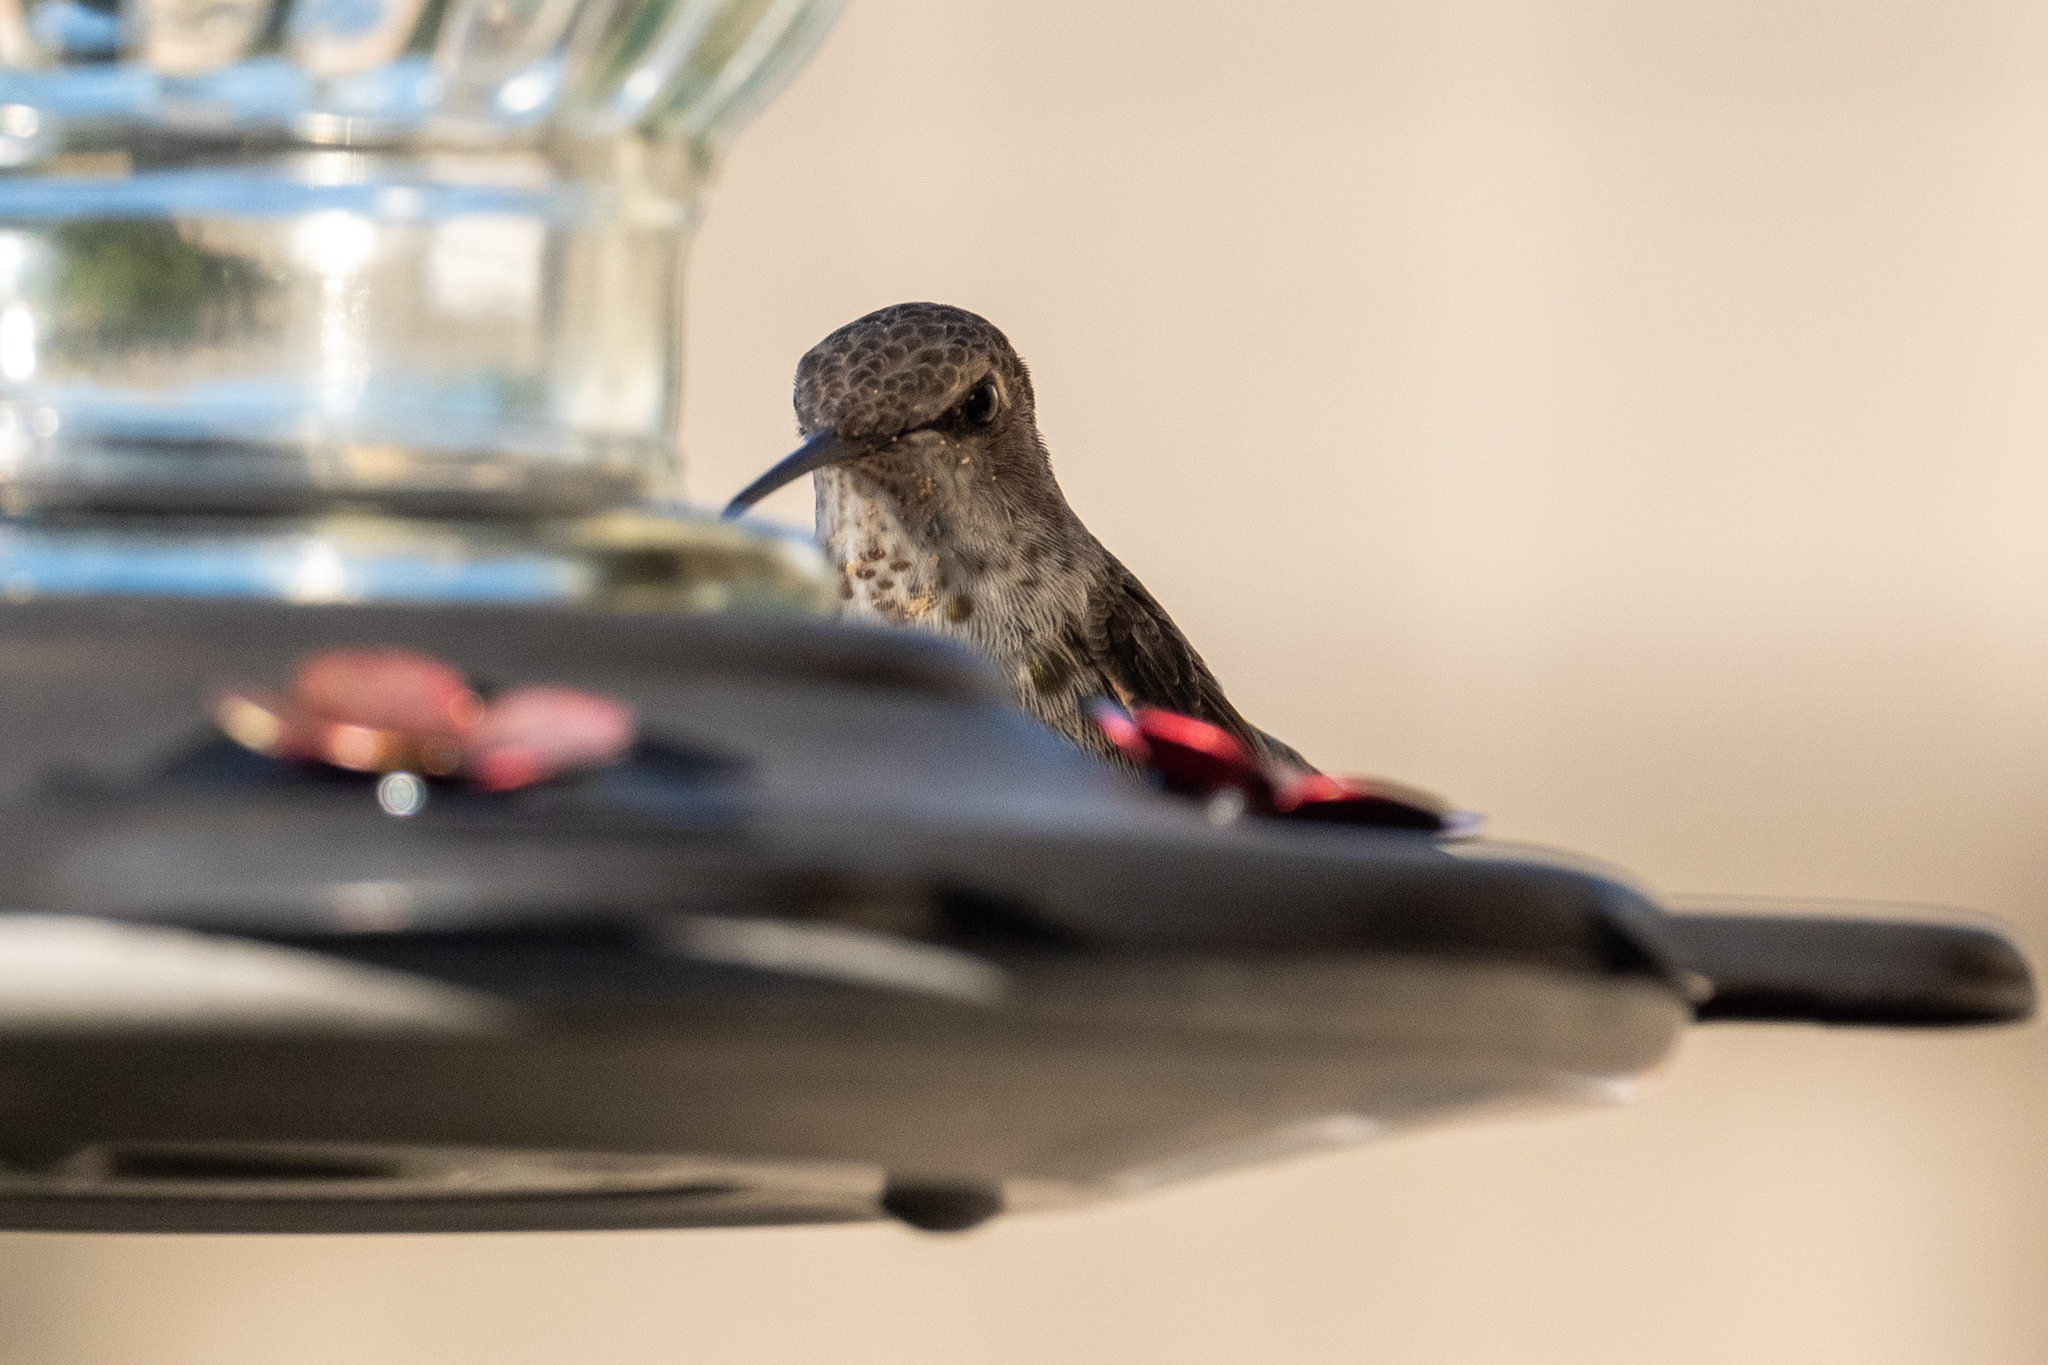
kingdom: Animalia
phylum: Chordata
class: Aves
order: Apodiformes
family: Trochilidae
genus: Calypte
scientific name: Calypte anna
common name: Anna's hummingbird
